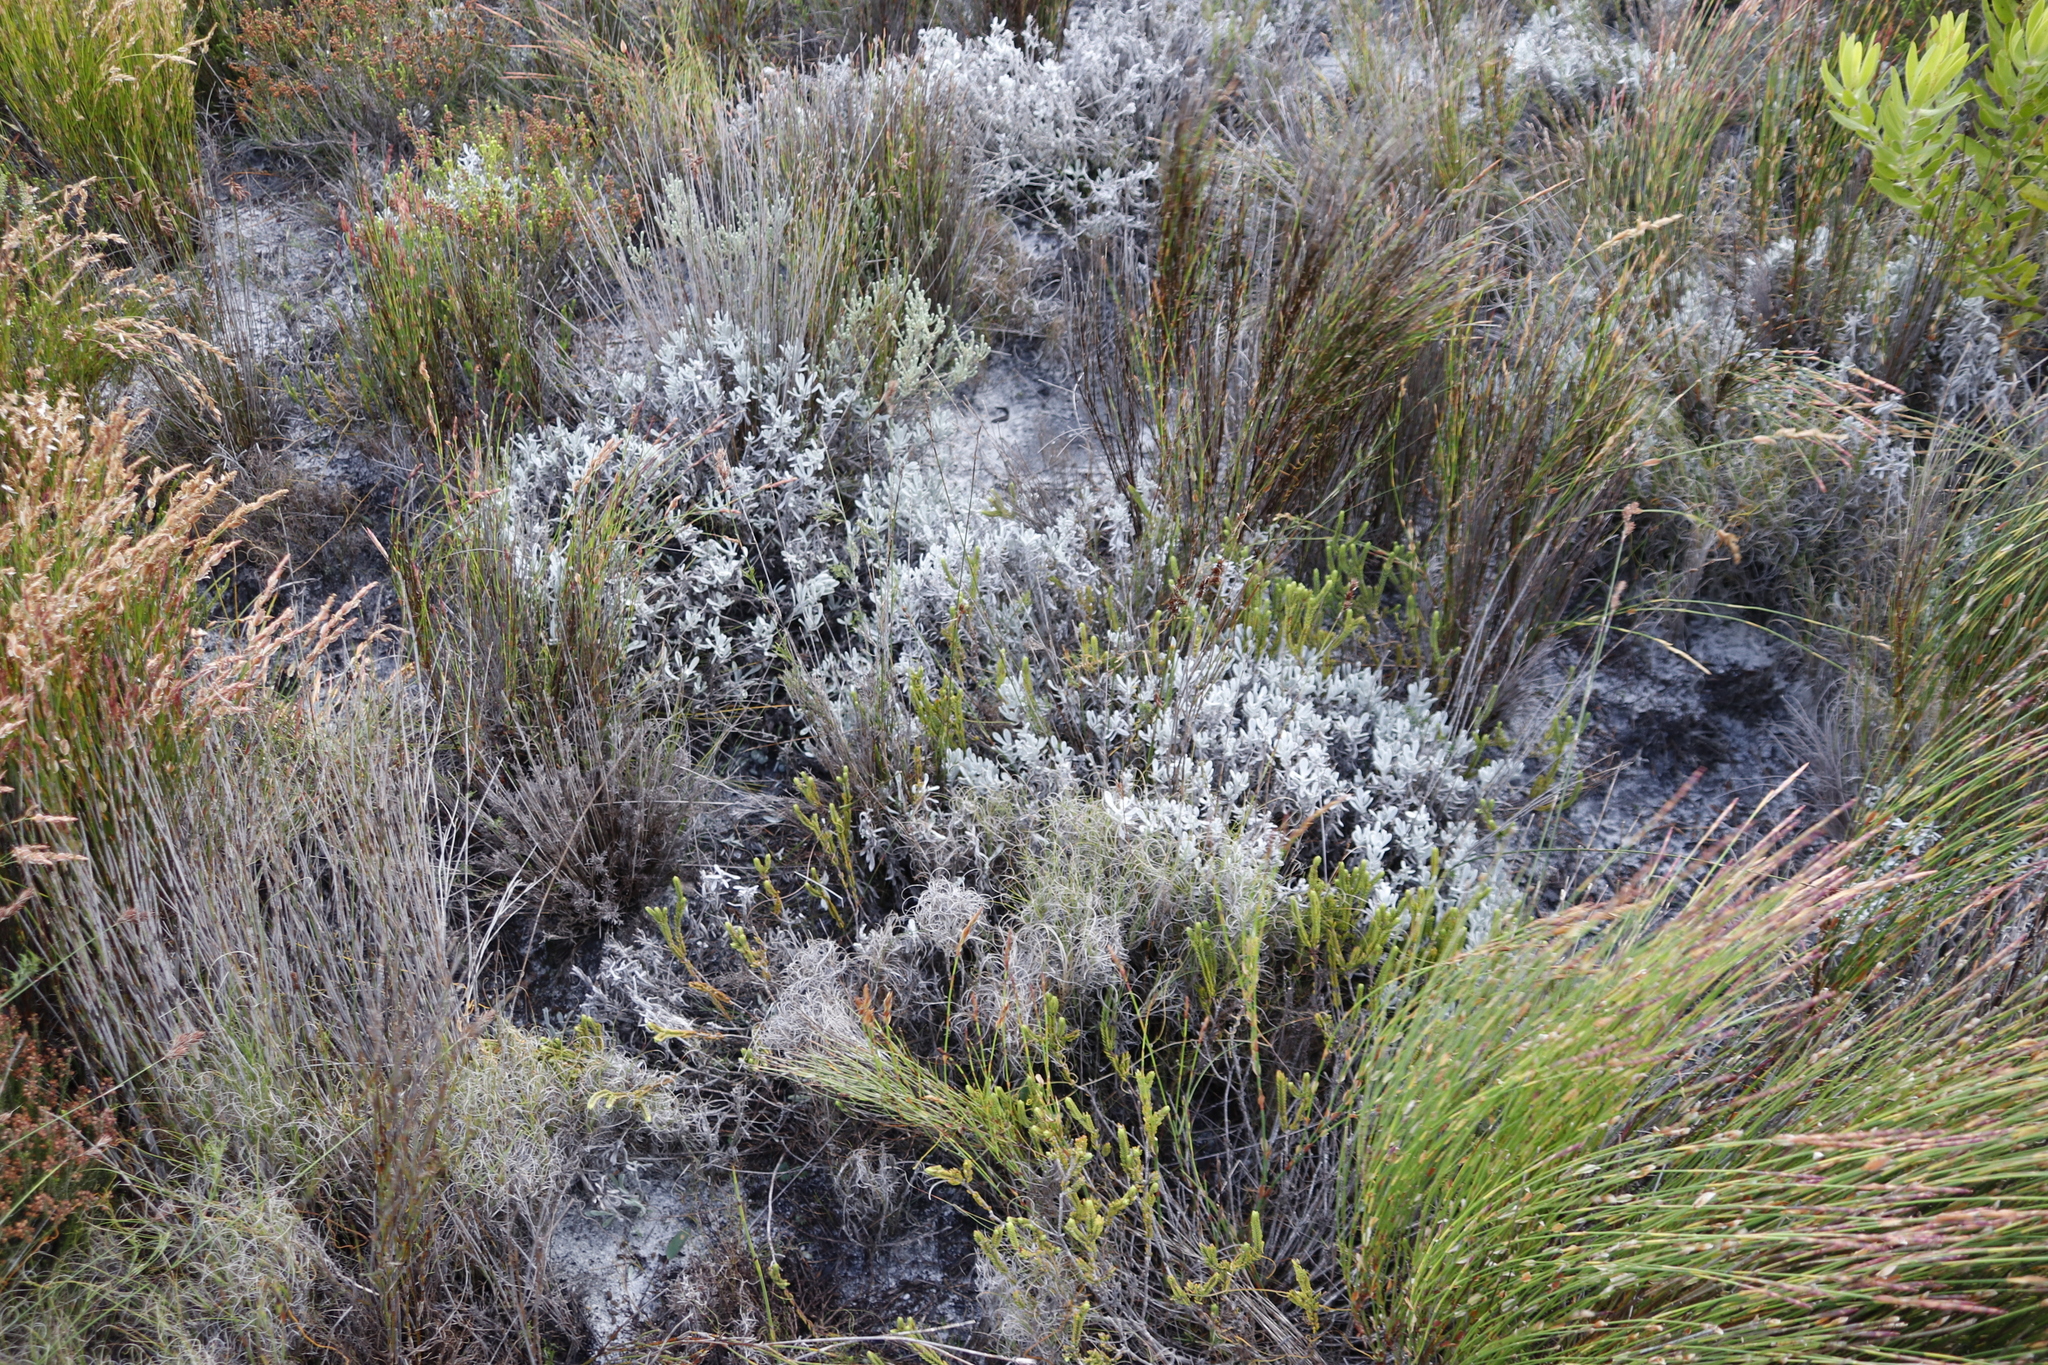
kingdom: Plantae
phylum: Tracheophyta
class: Magnoliopsida
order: Asterales
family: Asteraceae
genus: Petalacte
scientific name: Petalacte coronata
